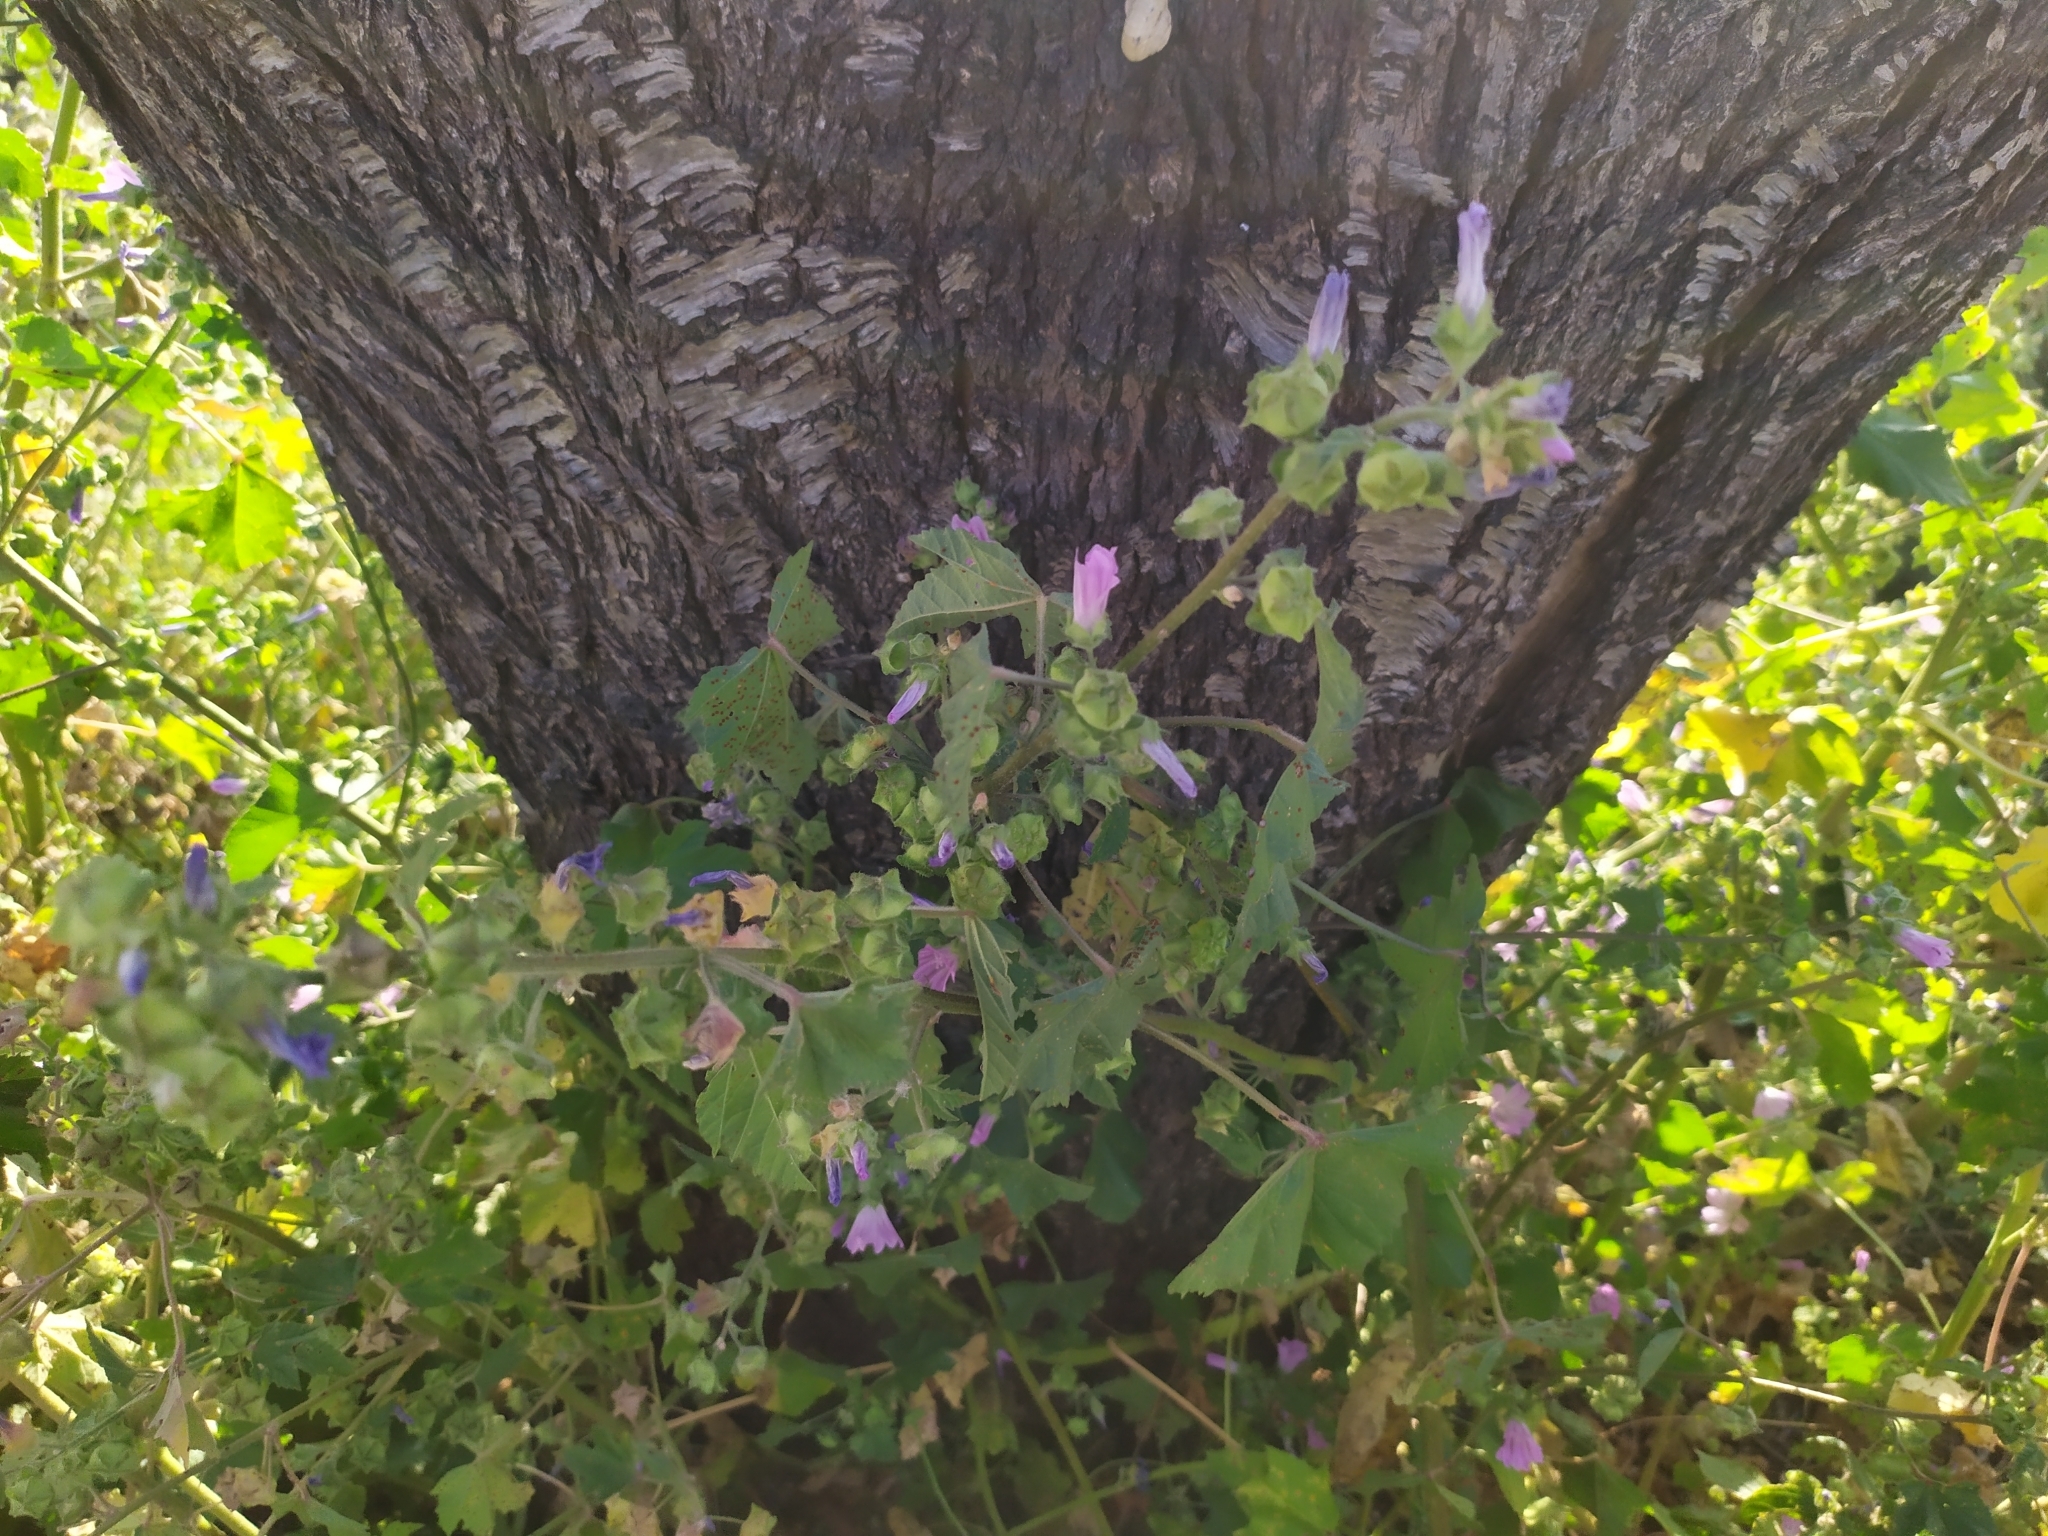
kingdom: Plantae
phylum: Tracheophyta
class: Magnoliopsida
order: Malvales
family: Malvaceae
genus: Malva
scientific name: Malva multiflora
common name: Cheeseweed
